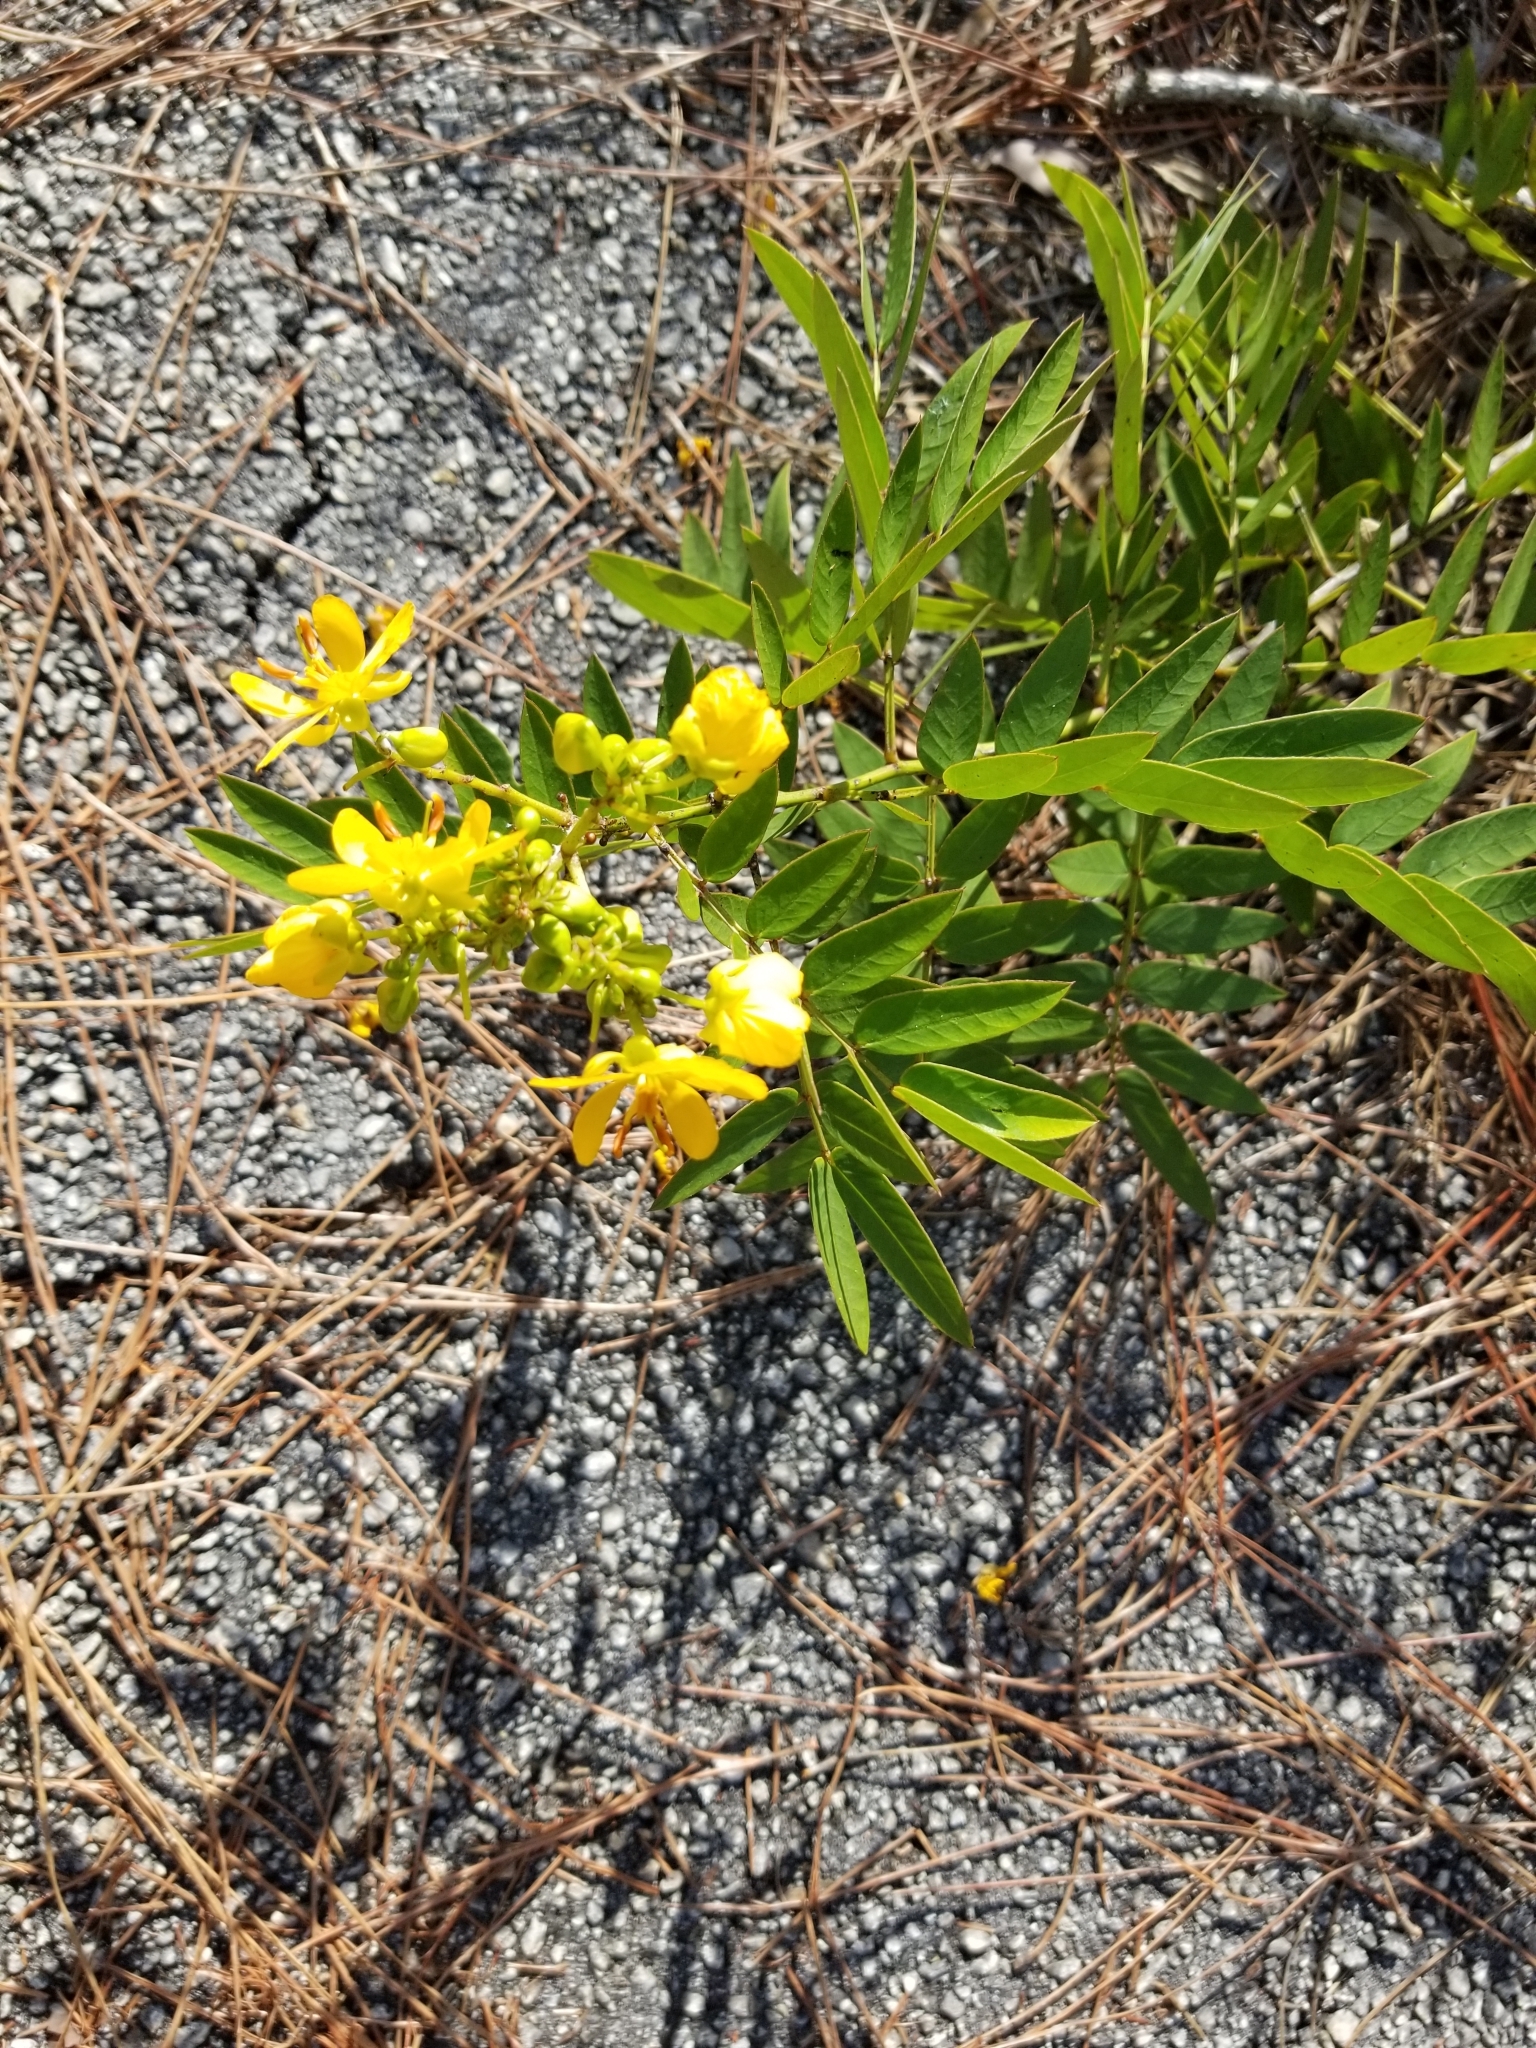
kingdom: Plantae
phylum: Tracheophyta
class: Magnoliopsida
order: Fabales
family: Fabaceae
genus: Senna
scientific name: Senna chapmanii
